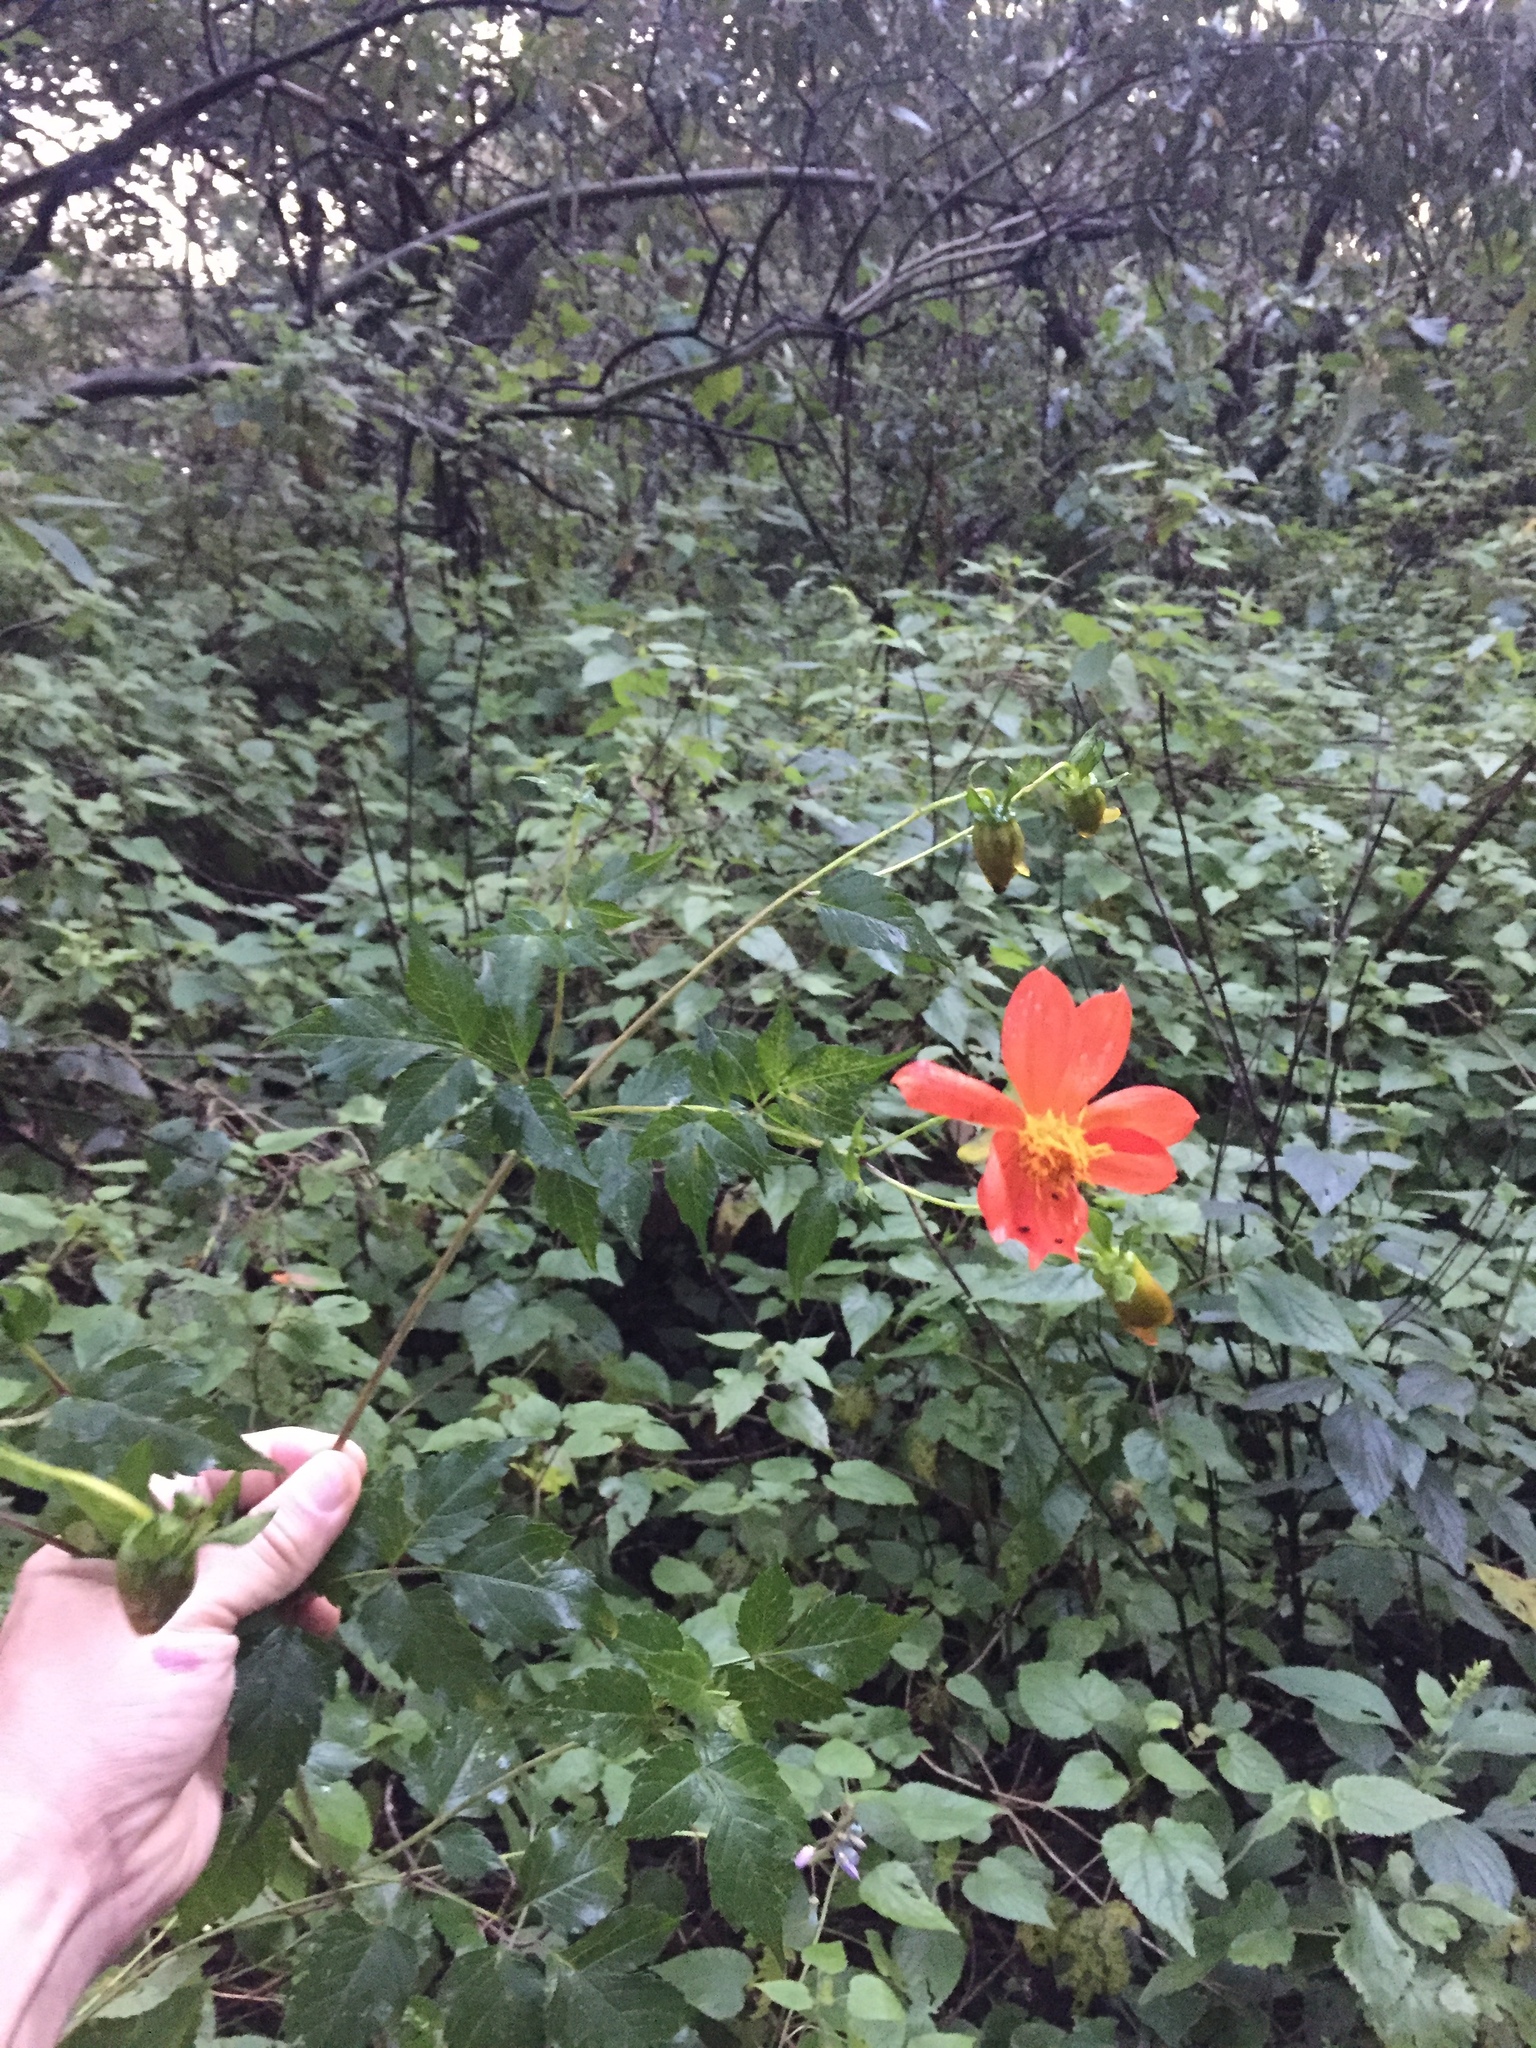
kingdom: Plantae
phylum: Tracheophyta
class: Magnoliopsida
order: Asterales
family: Asteraceae
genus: Dahlia
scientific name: Dahlia coccinea
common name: Red dahlia
